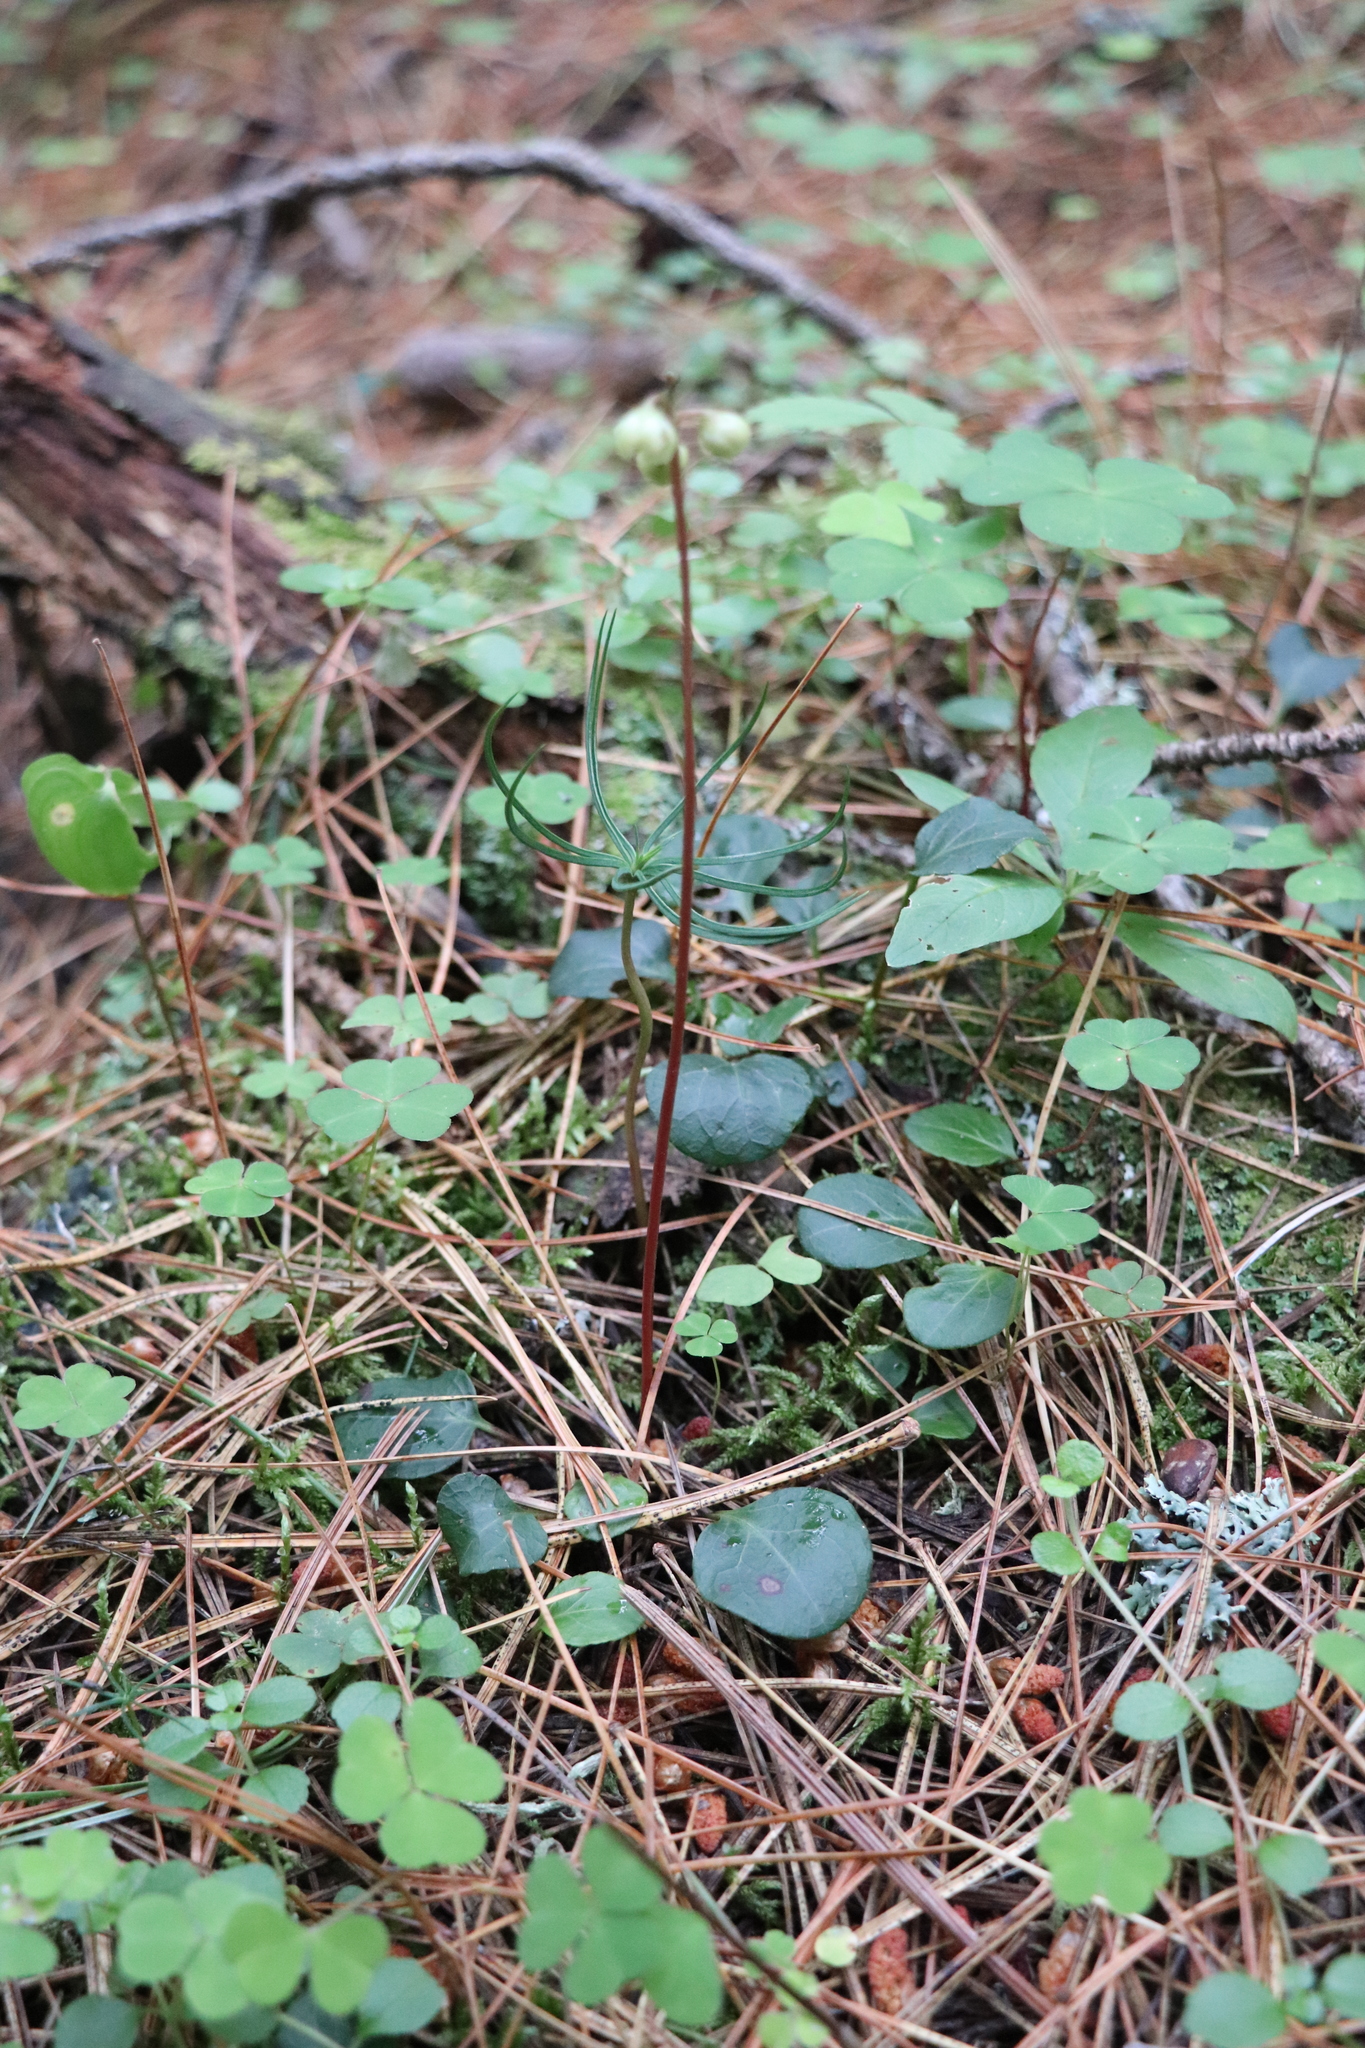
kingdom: Plantae
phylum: Tracheophyta
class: Magnoliopsida
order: Ericales
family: Ericaceae
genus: Pyrola
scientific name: Pyrola chlorantha
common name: Green wintergreen
